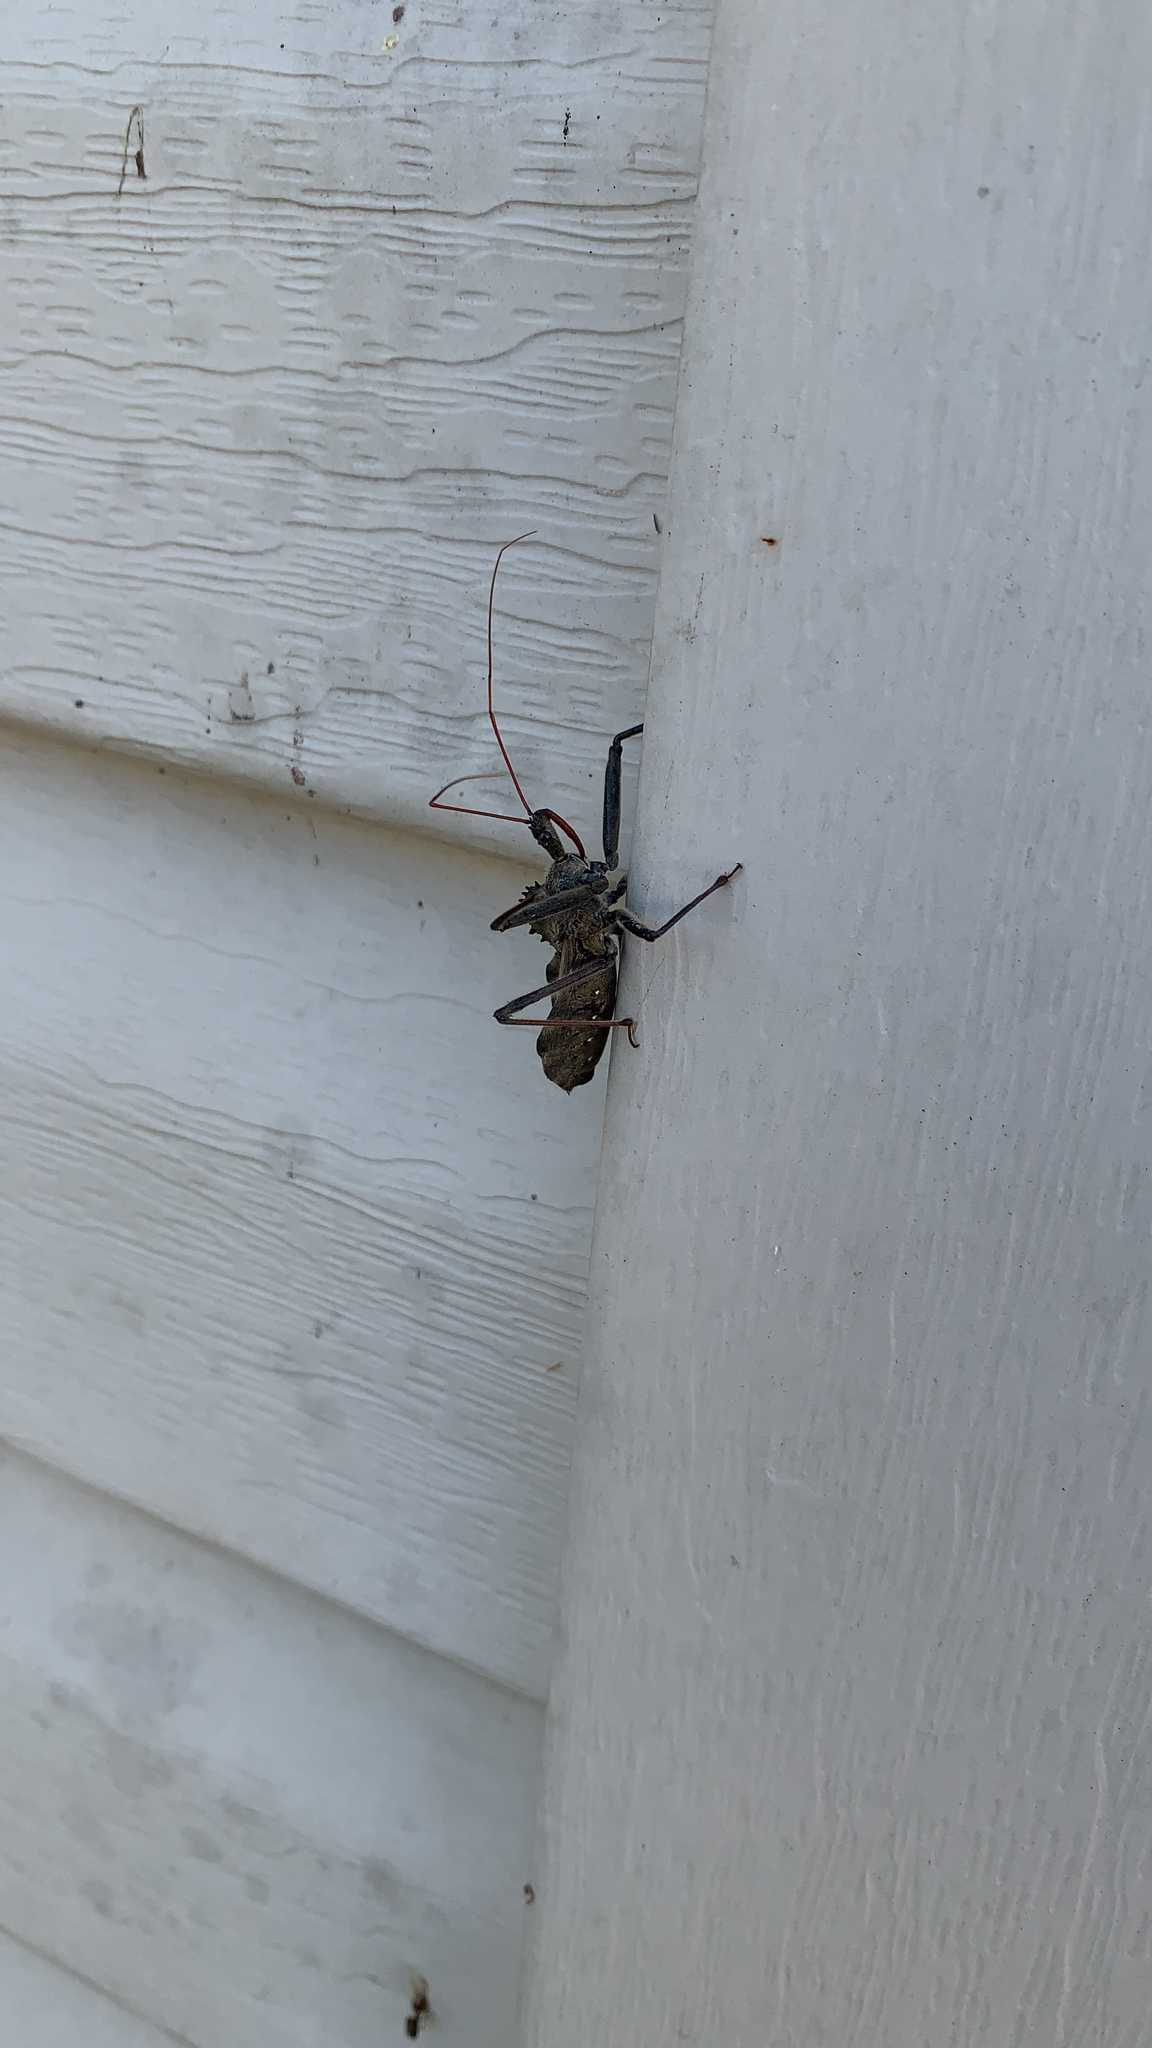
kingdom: Animalia
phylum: Arthropoda
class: Insecta
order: Hemiptera
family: Reduviidae
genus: Arilus
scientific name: Arilus cristatus
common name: North american wheel bug
